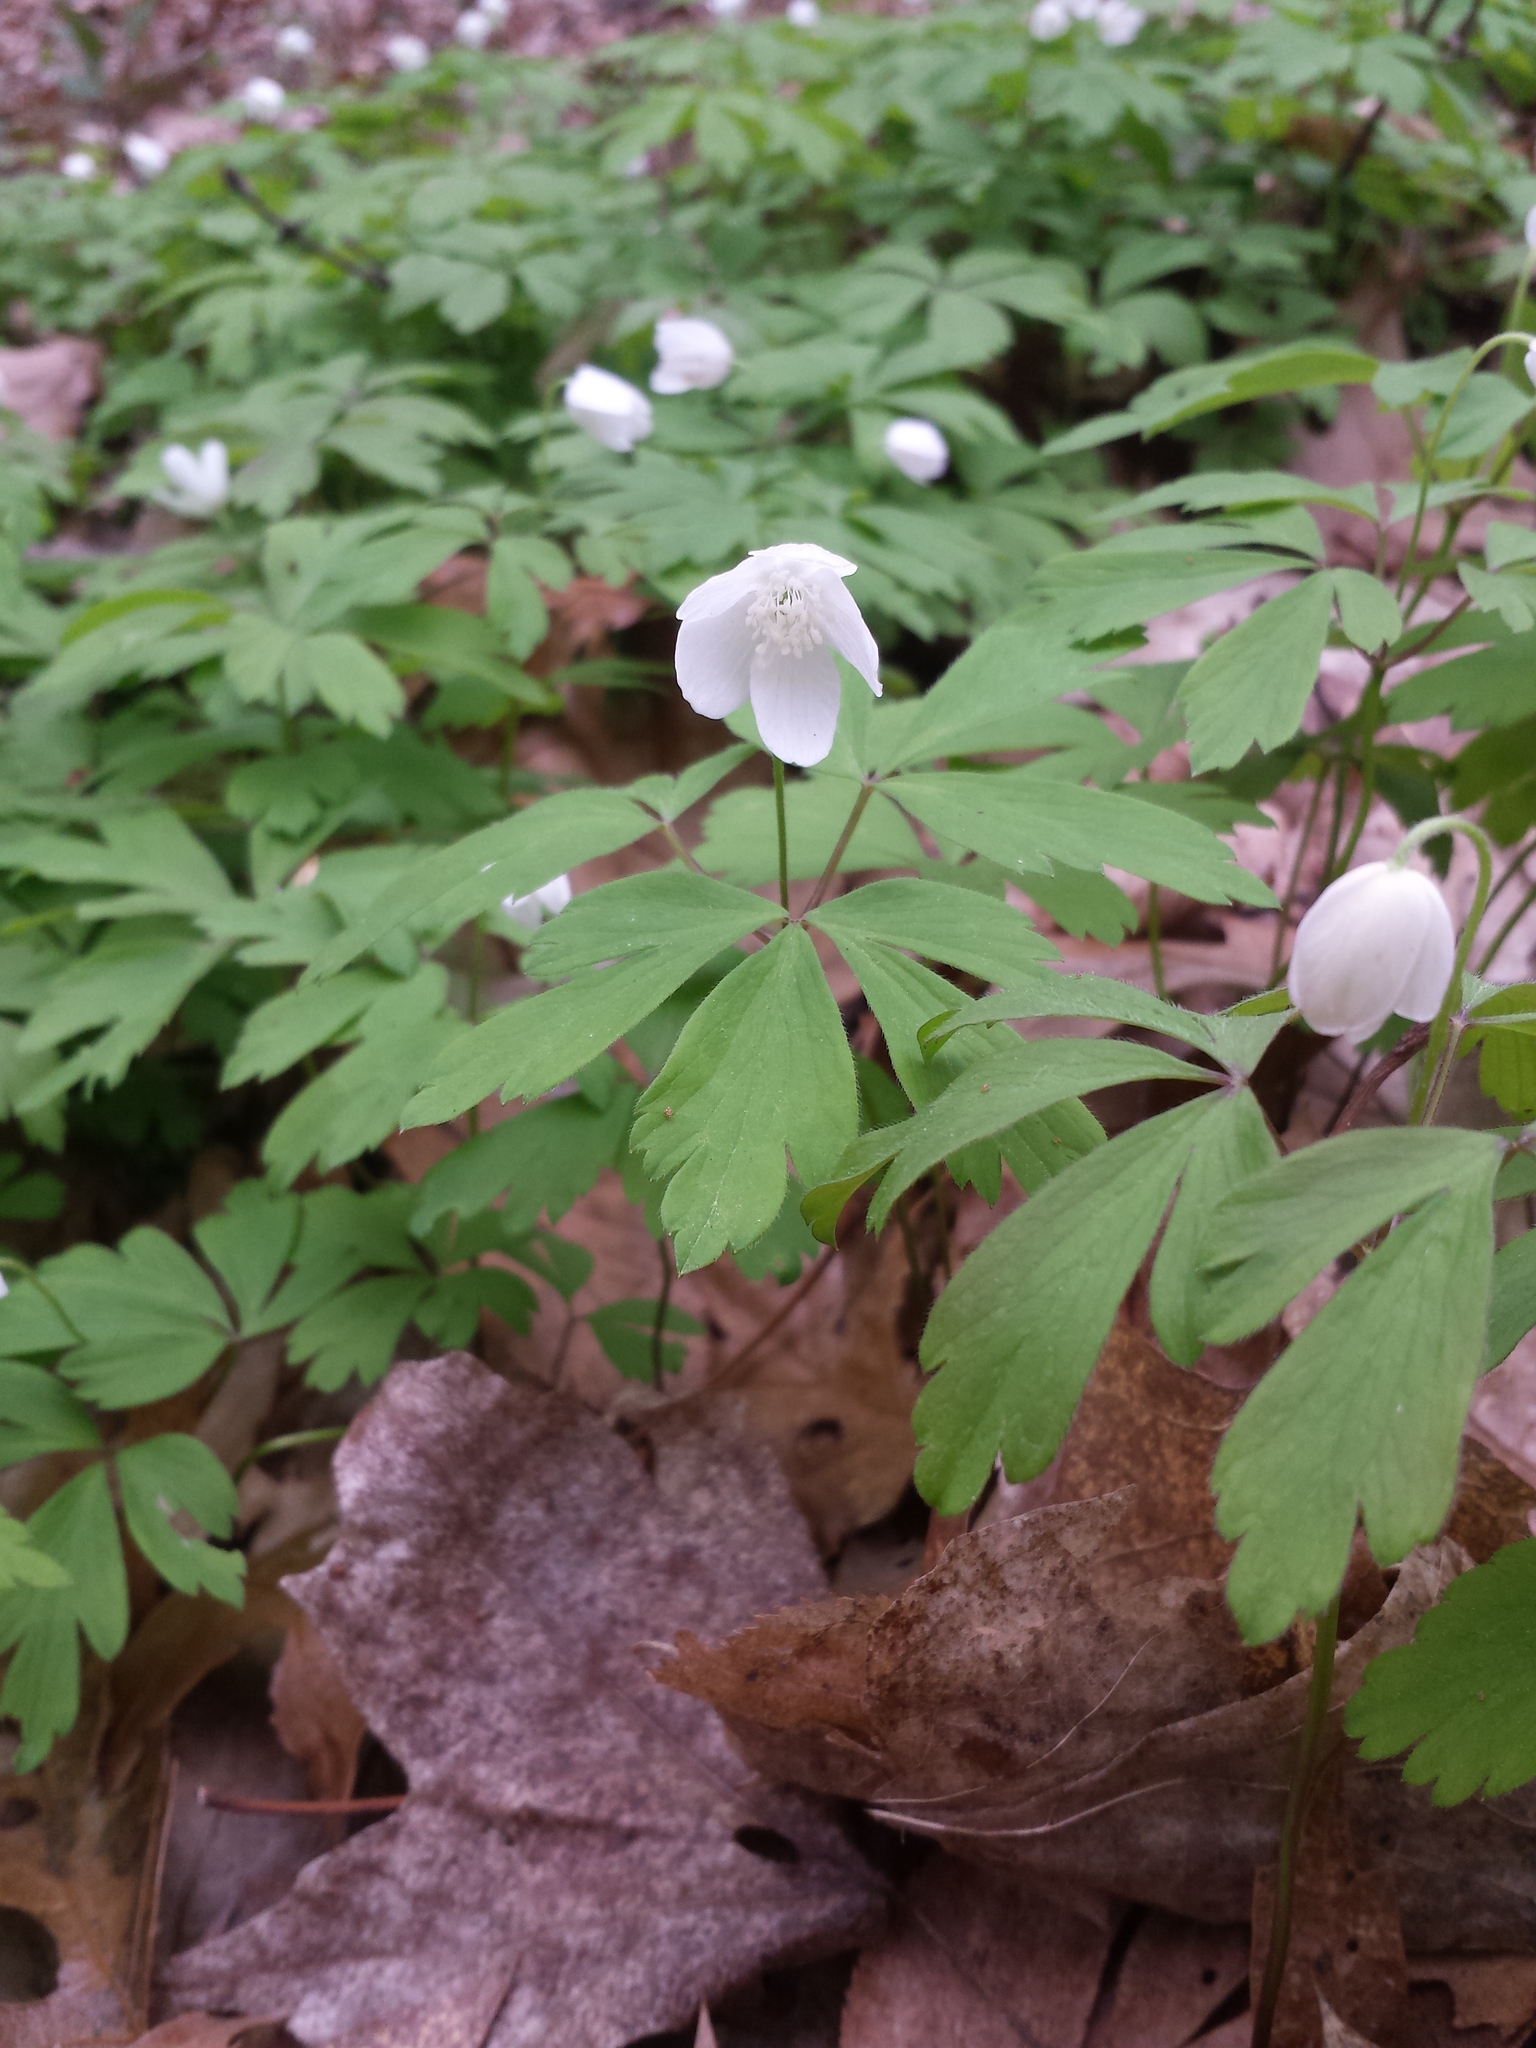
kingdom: Plantae
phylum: Tracheophyta
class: Magnoliopsida
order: Ranunculales
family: Ranunculaceae
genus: Anemone
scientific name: Anemone quinquefolia
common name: Wood anemone
